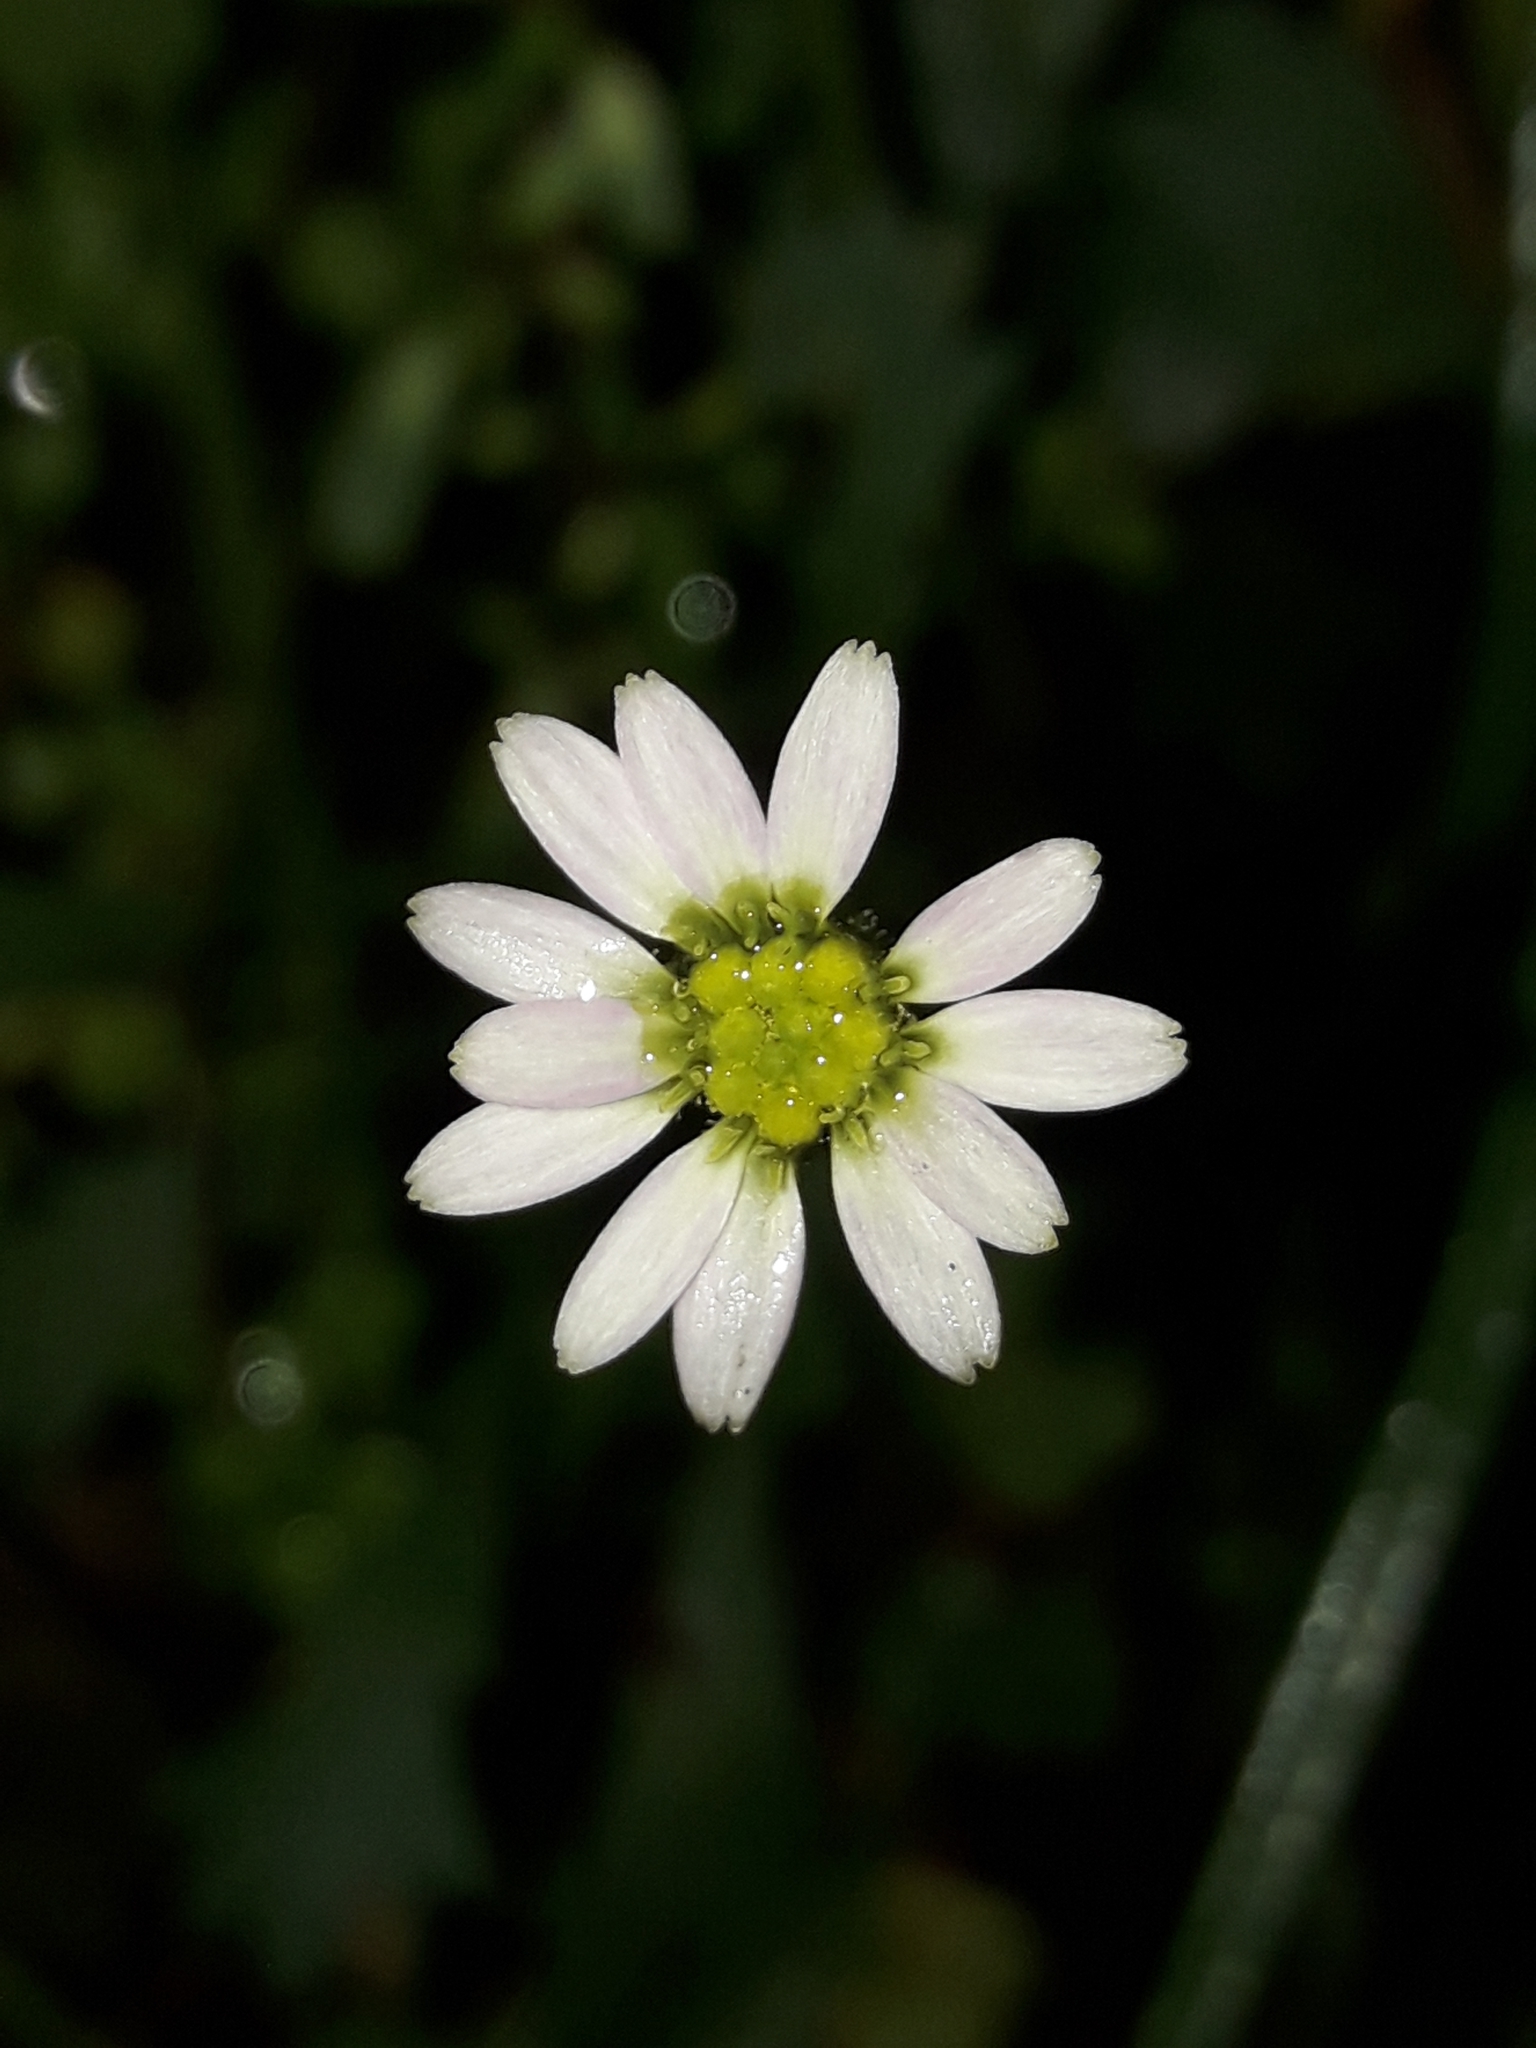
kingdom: Plantae
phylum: Tracheophyta
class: Magnoliopsida
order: Asterales
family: Asteraceae
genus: Brachyscome
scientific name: Brachyscome radicata
